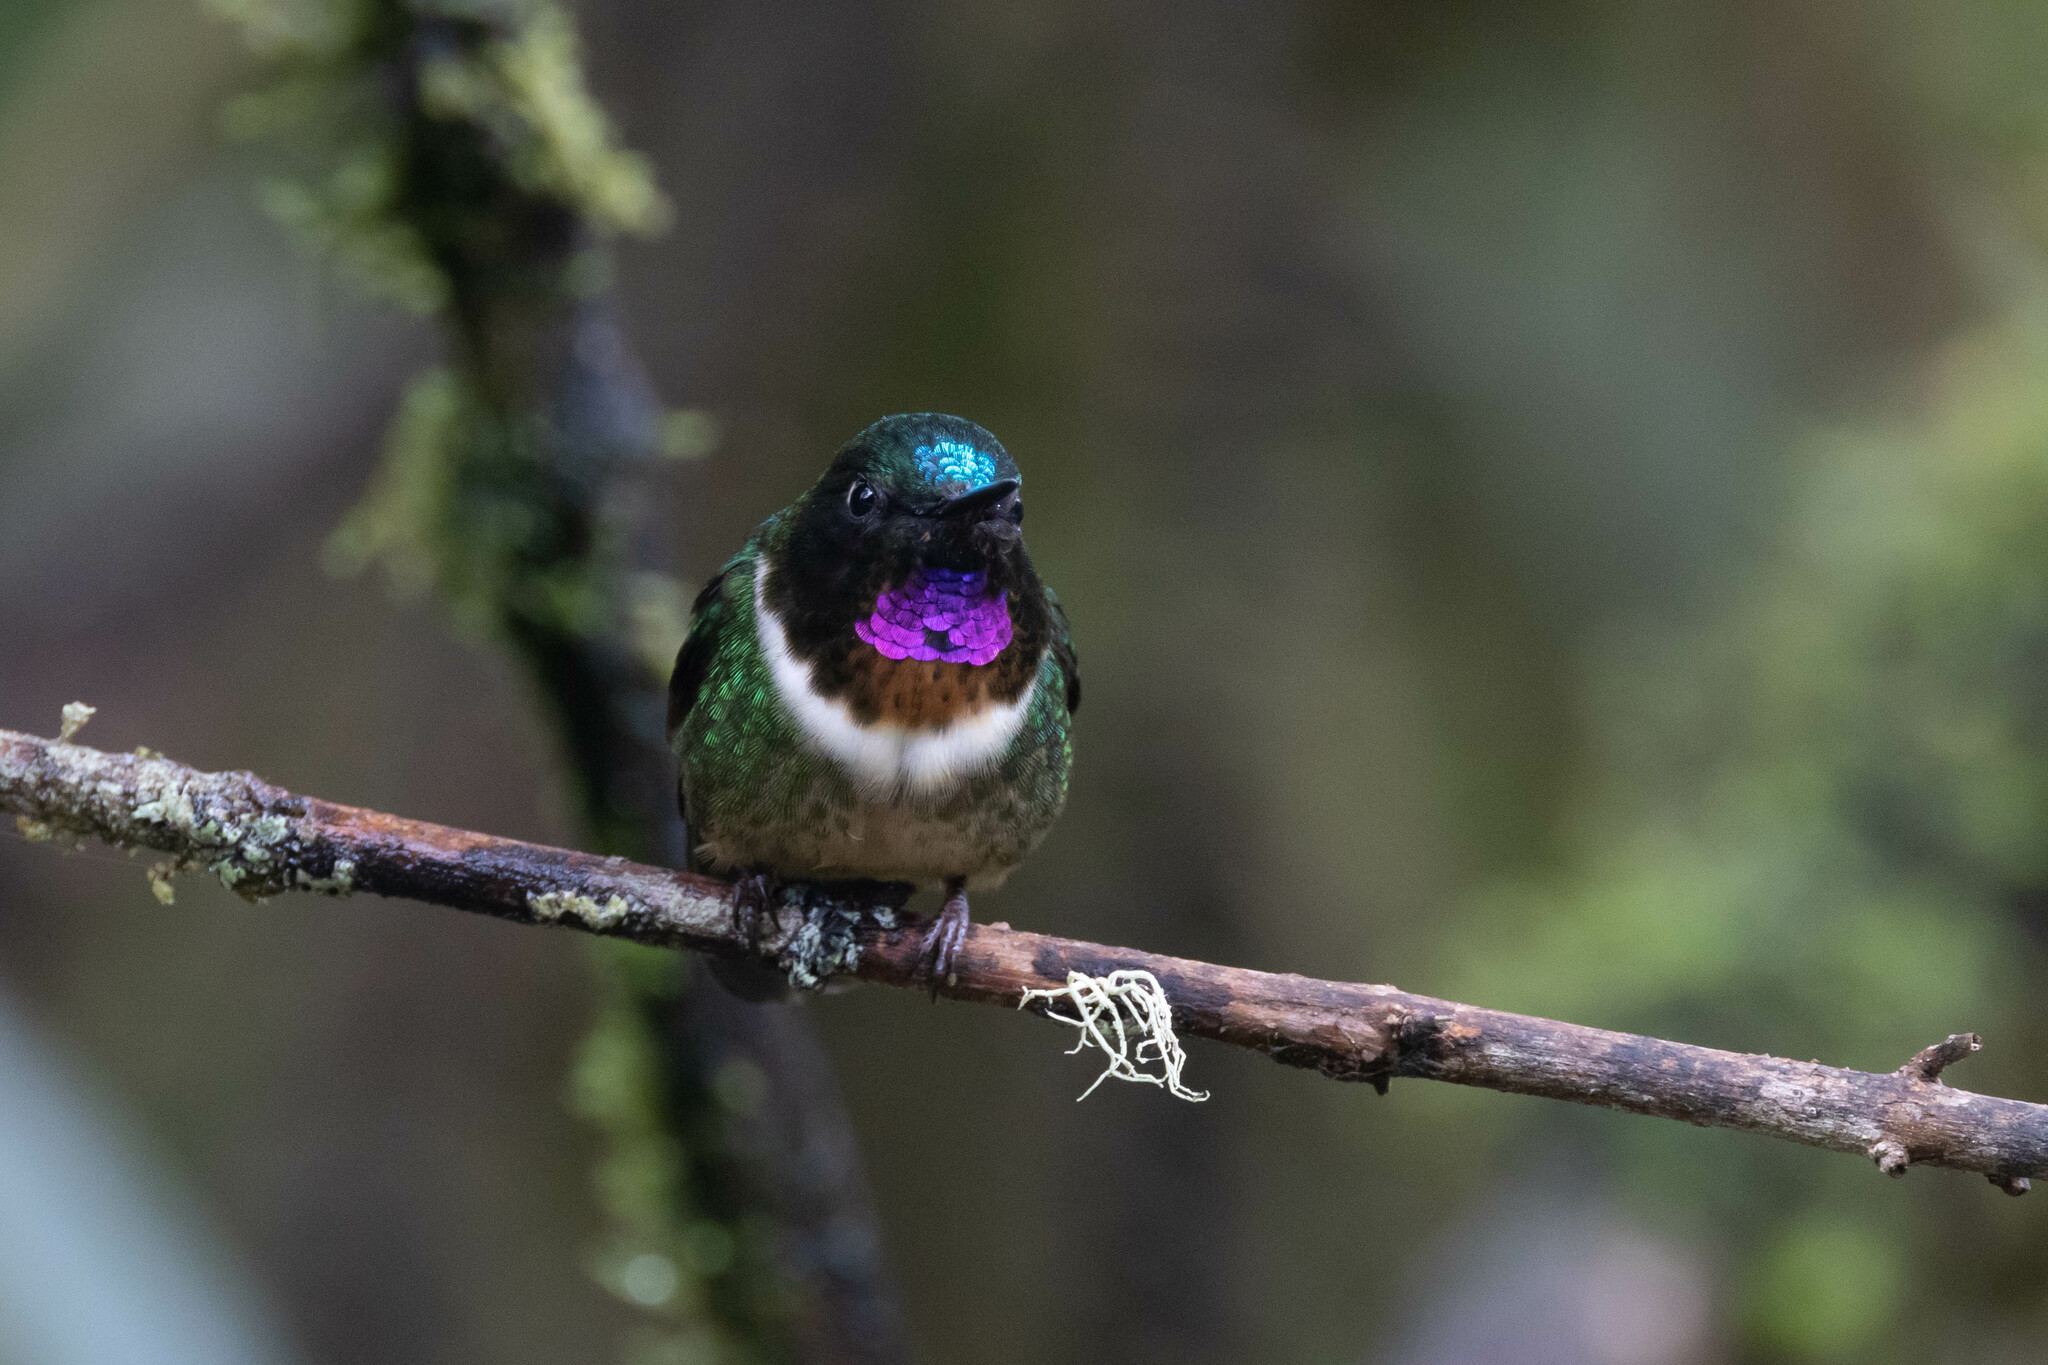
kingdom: Animalia
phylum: Chordata
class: Aves
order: Apodiformes
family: Trochilidae
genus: Heliangelus
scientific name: Heliangelus amethysticollis
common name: Amethyst-throated sunangel
